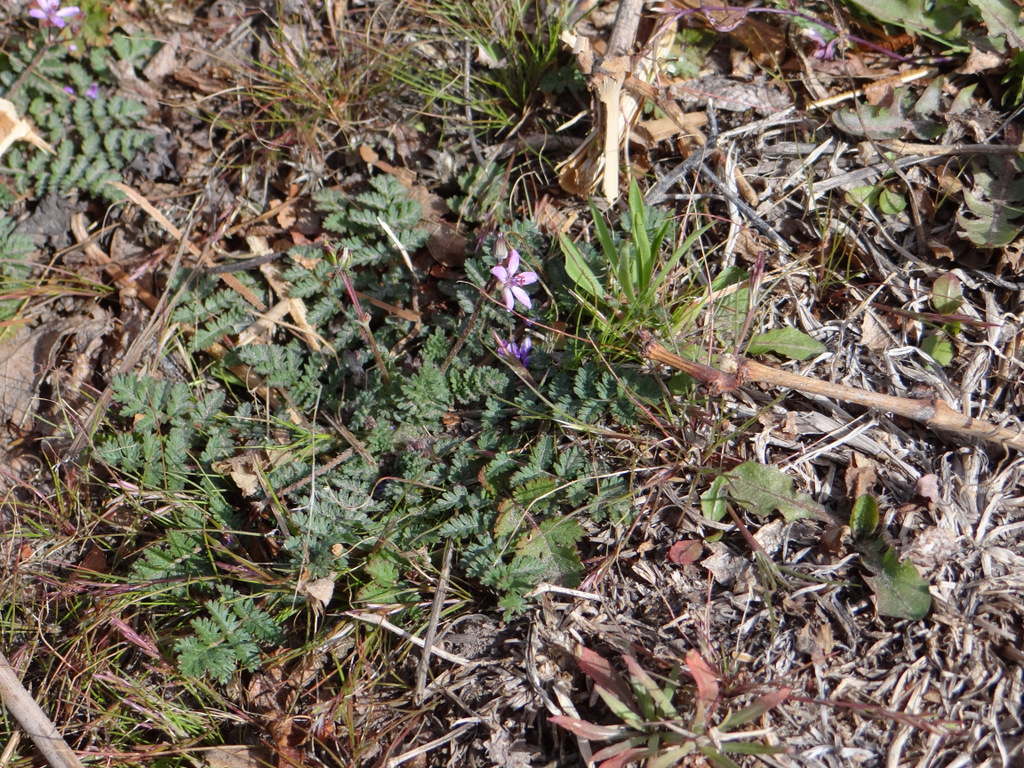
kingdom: Plantae
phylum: Tracheophyta
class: Magnoliopsida
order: Geraniales
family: Geraniaceae
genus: Erodium
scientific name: Erodium cicutarium
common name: Common stork's-bill
